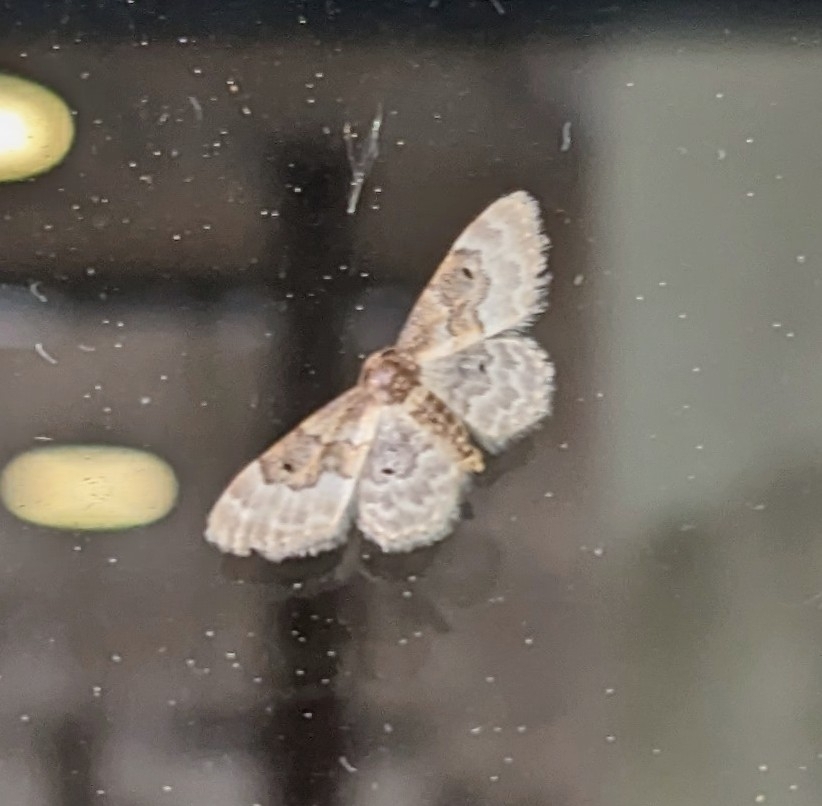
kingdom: Animalia
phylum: Arthropoda
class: Insecta
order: Lepidoptera
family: Geometridae
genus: Idaea
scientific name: Idaea rusticata
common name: Least carpet
